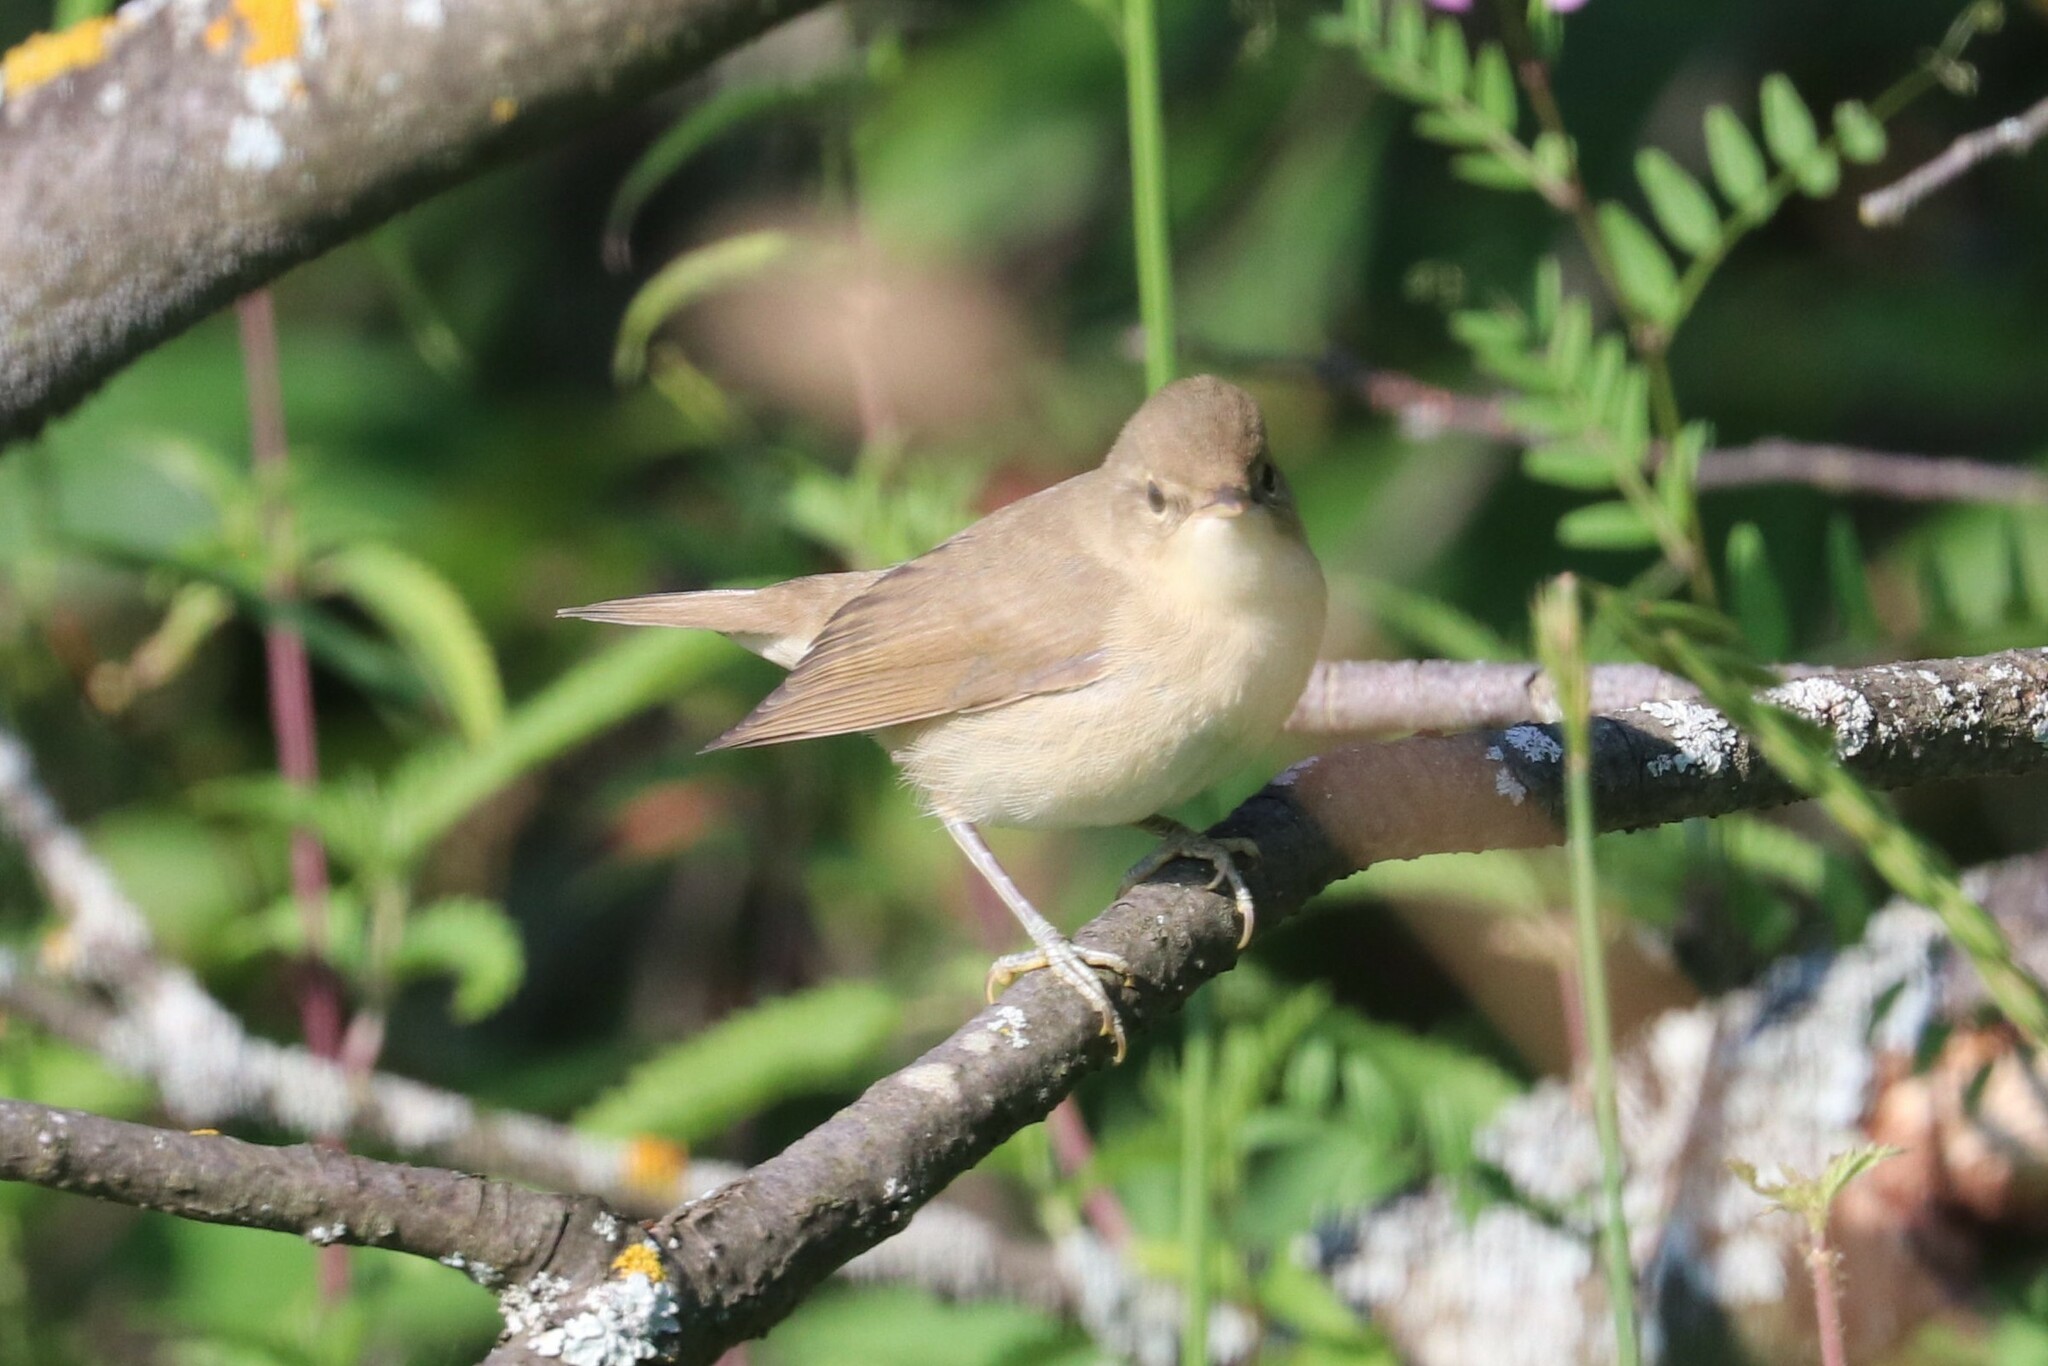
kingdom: Animalia
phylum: Chordata
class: Aves
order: Passeriformes
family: Acrocephalidae
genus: Acrocephalus
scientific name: Acrocephalus dumetorum
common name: Blyth's reed warbler
